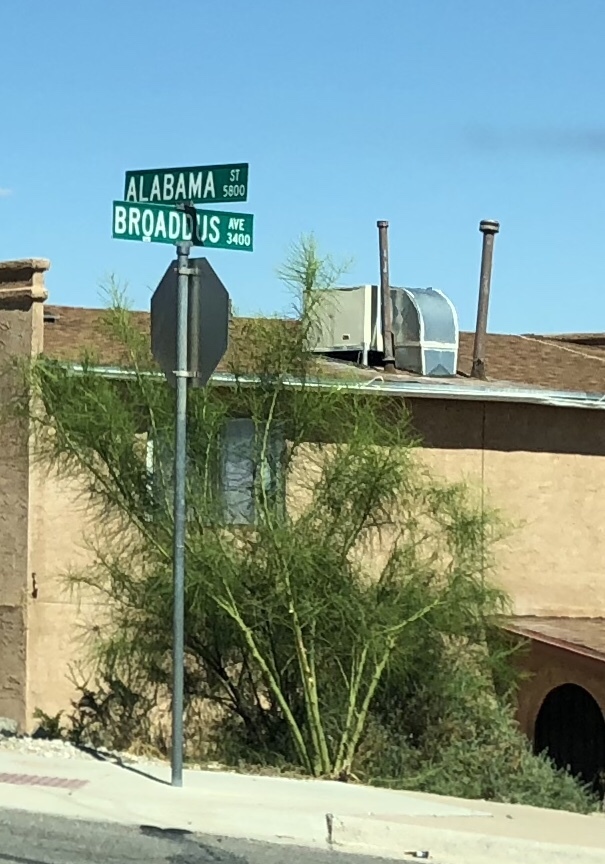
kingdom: Plantae
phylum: Tracheophyta
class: Magnoliopsida
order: Fabales
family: Fabaceae
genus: Parkinsonia
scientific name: Parkinsonia aculeata
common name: Jerusalem thorn
